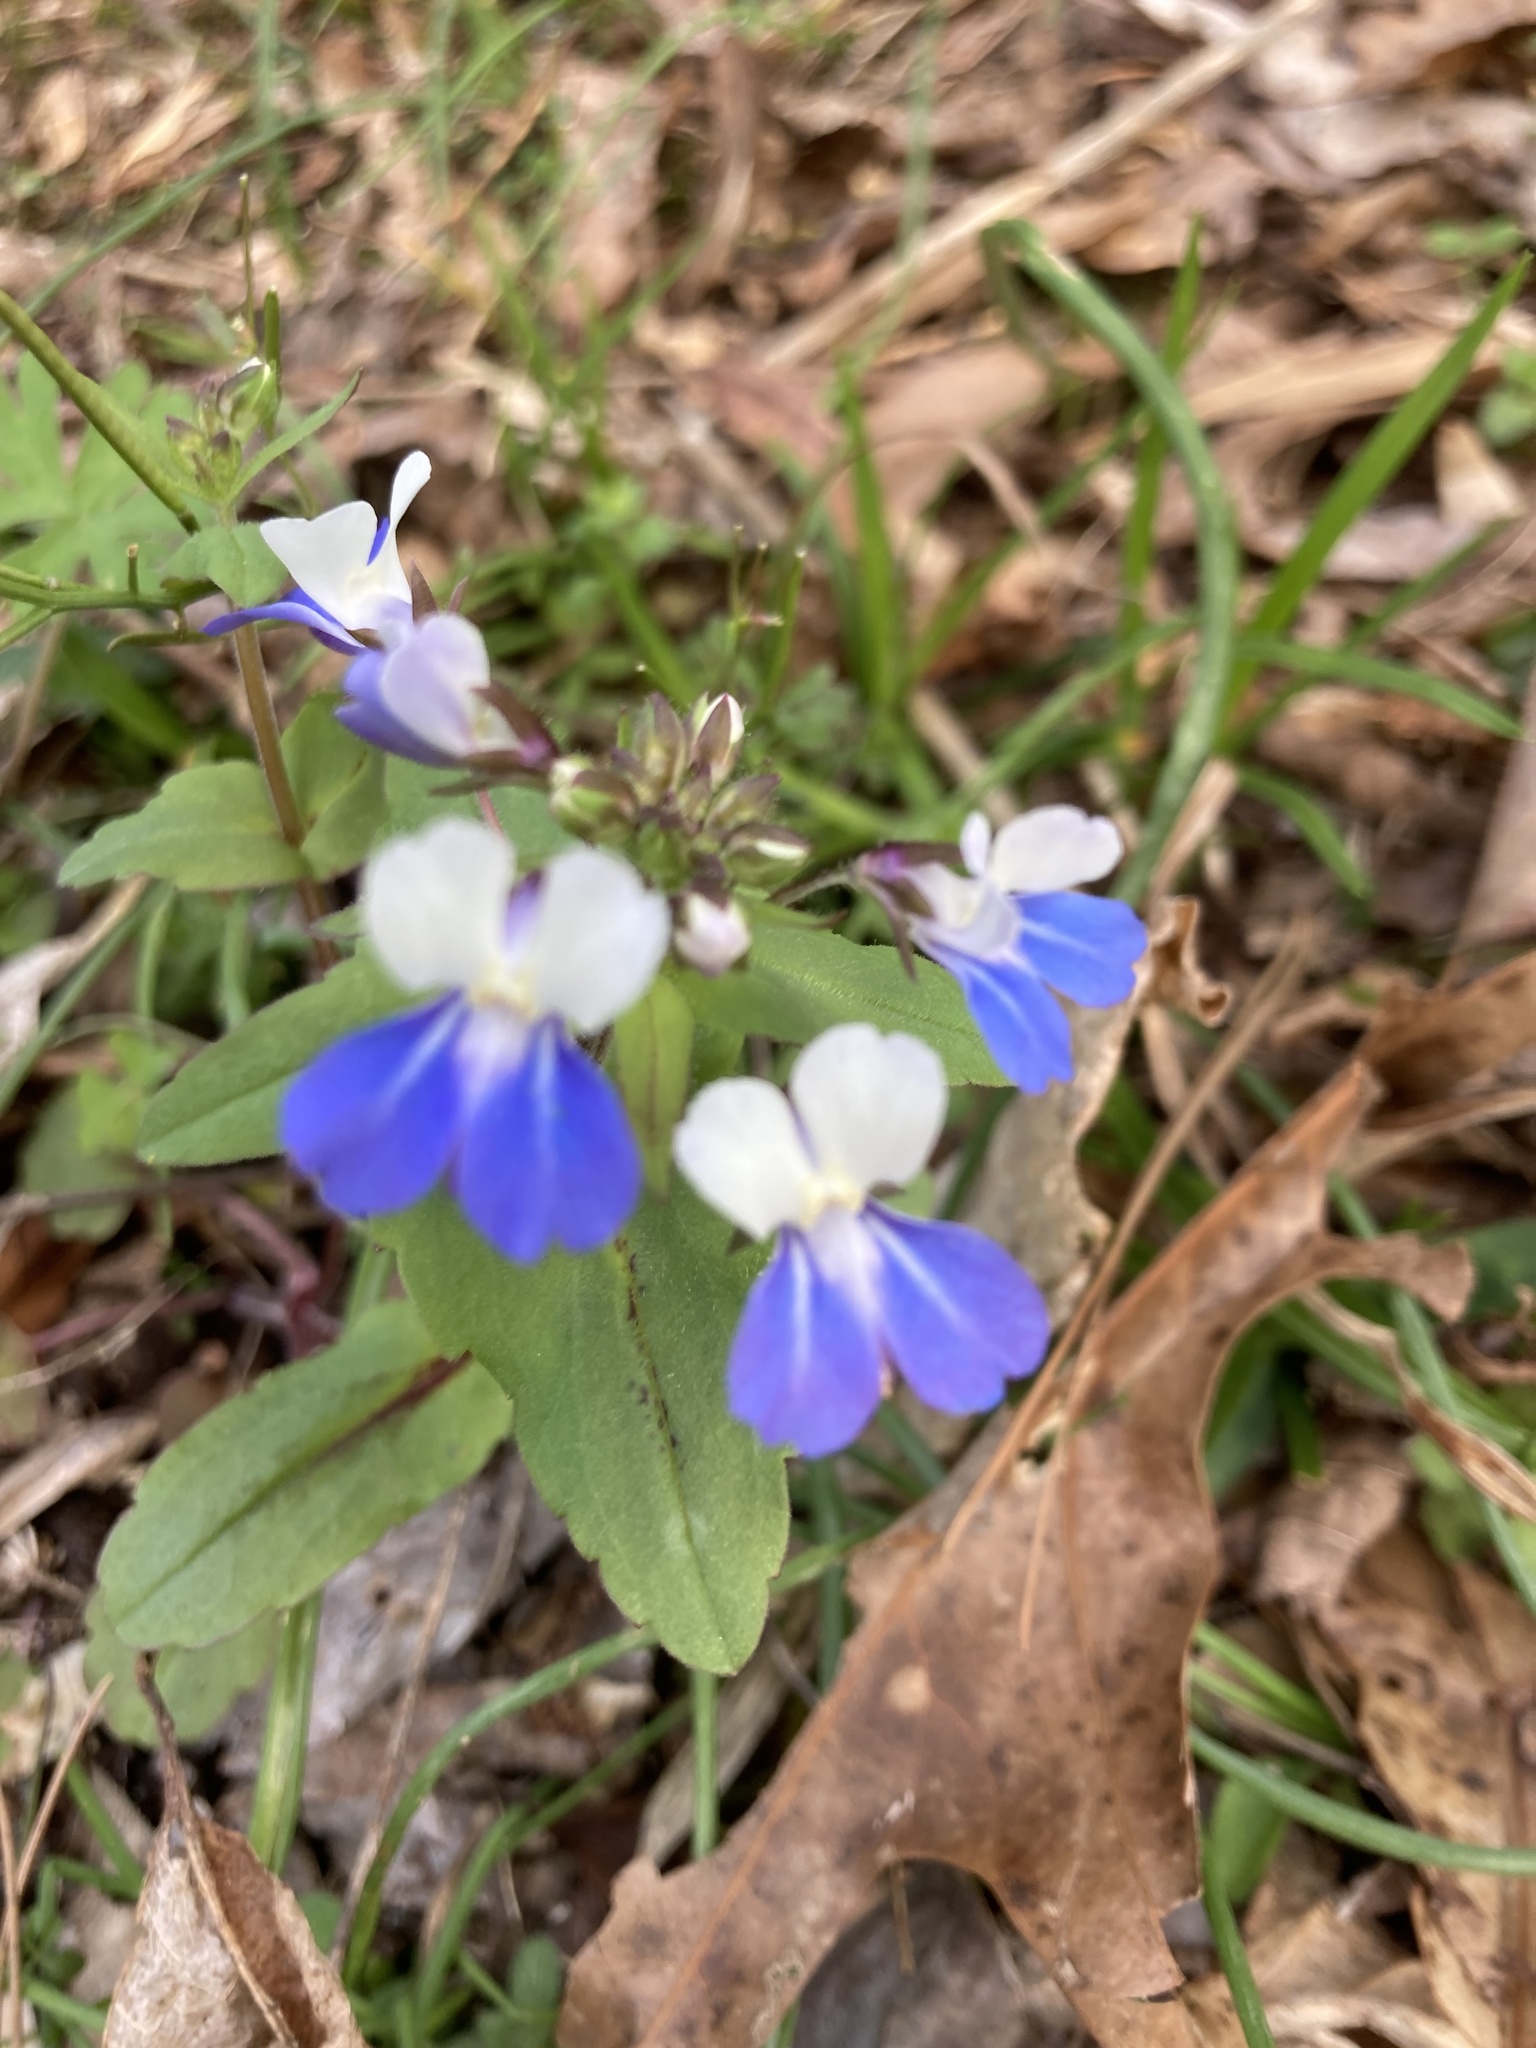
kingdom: Plantae
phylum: Tracheophyta
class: Magnoliopsida
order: Lamiales
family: Plantaginaceae
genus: Collinsia
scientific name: Collinsia verna
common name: Broad-leaved collinsia
